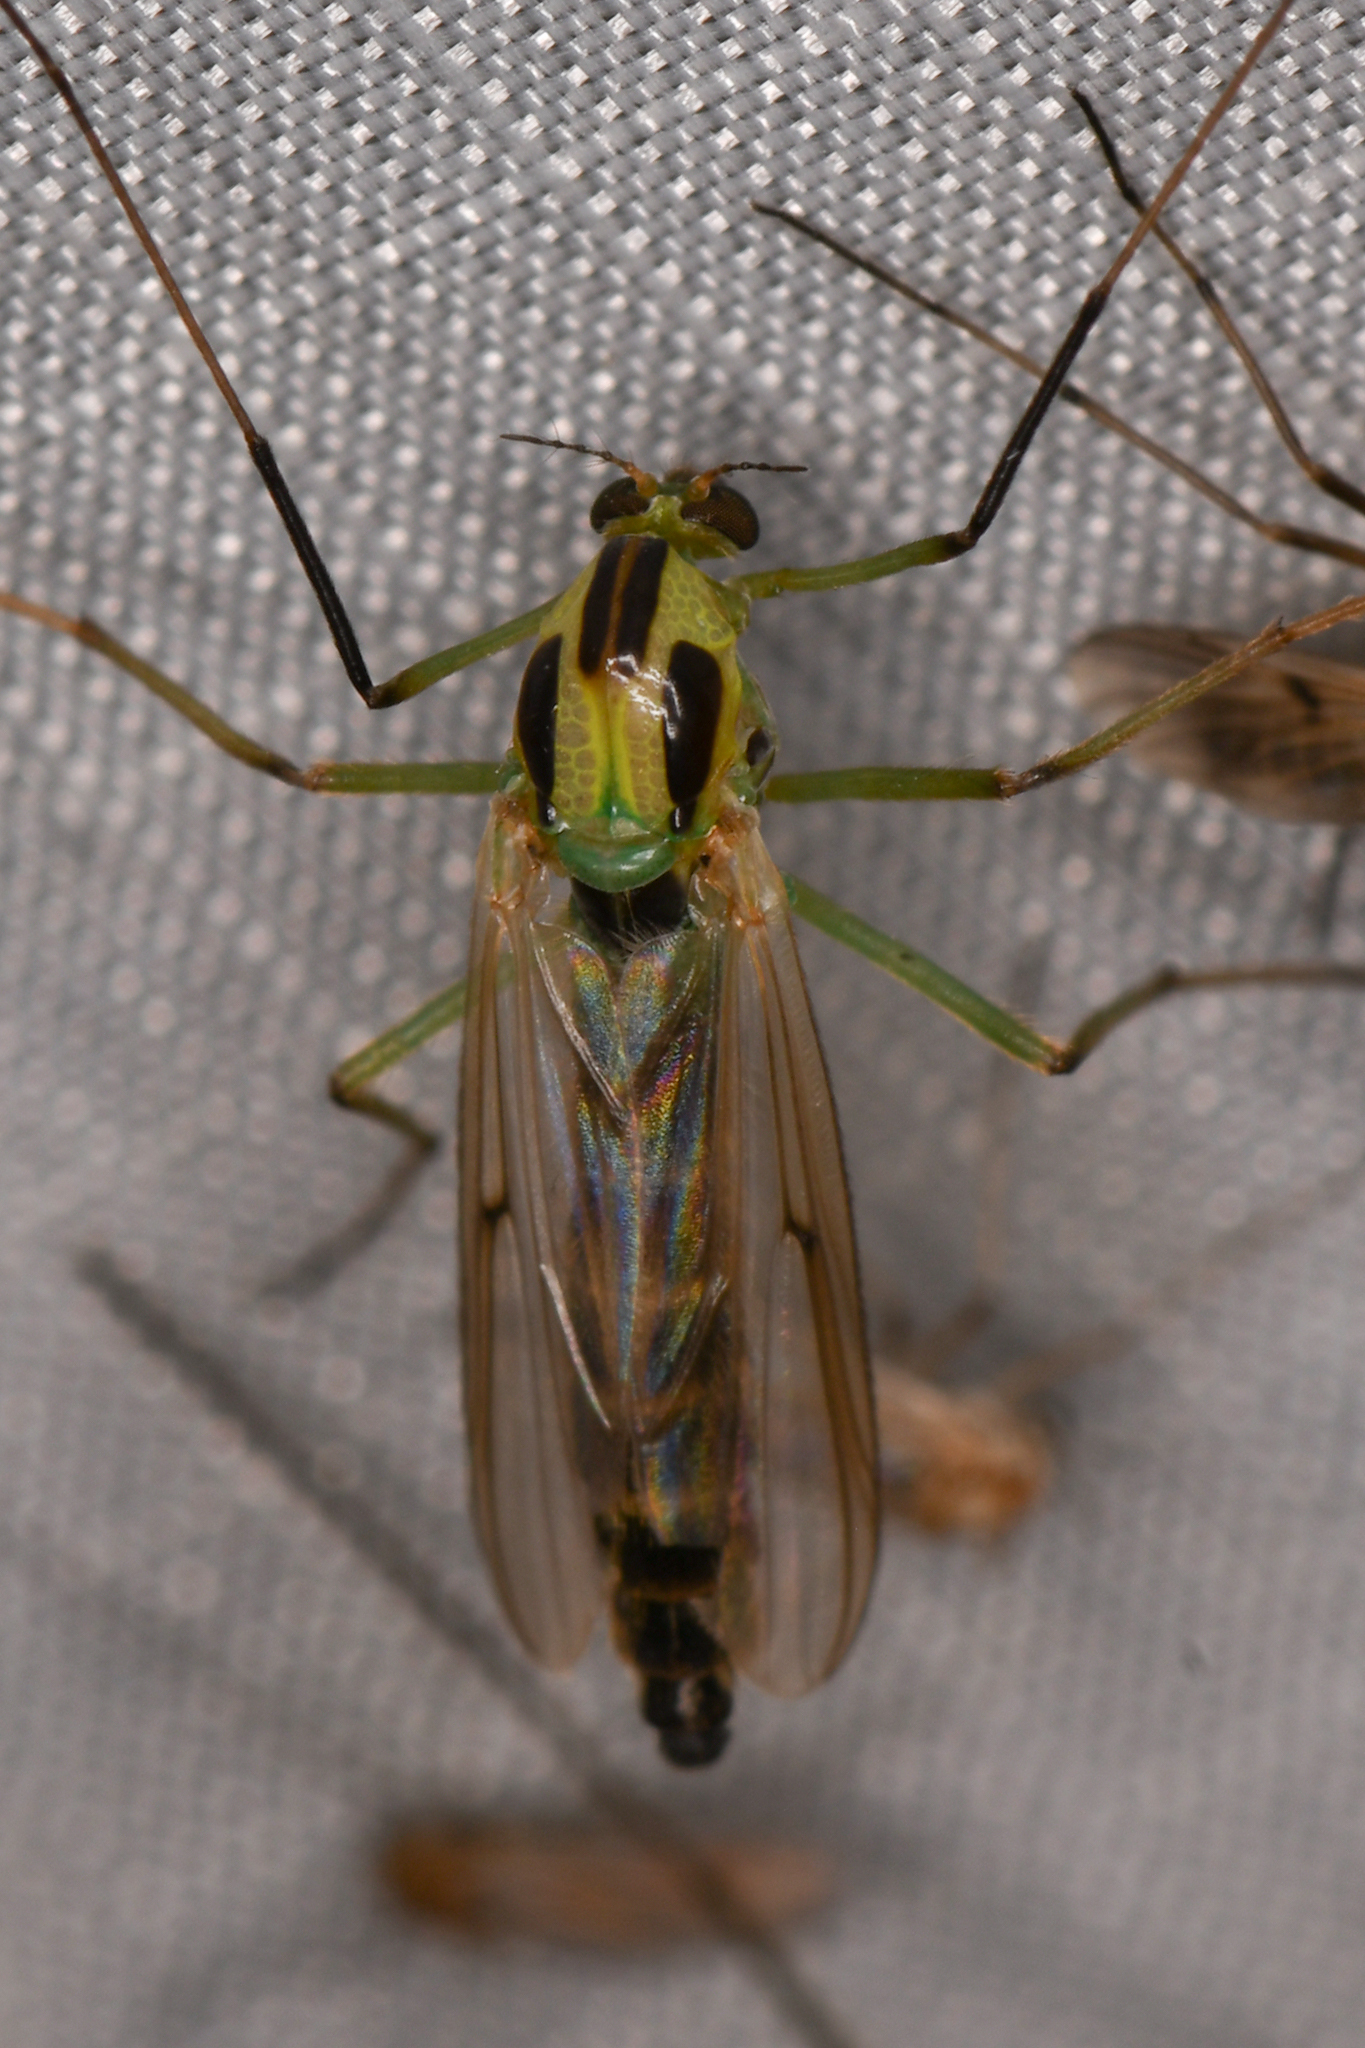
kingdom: Animalia
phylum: Arthropoda
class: Insecta
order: Diptera
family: Chironomidae
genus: Chironomus
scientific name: Chironomus atroviridis
